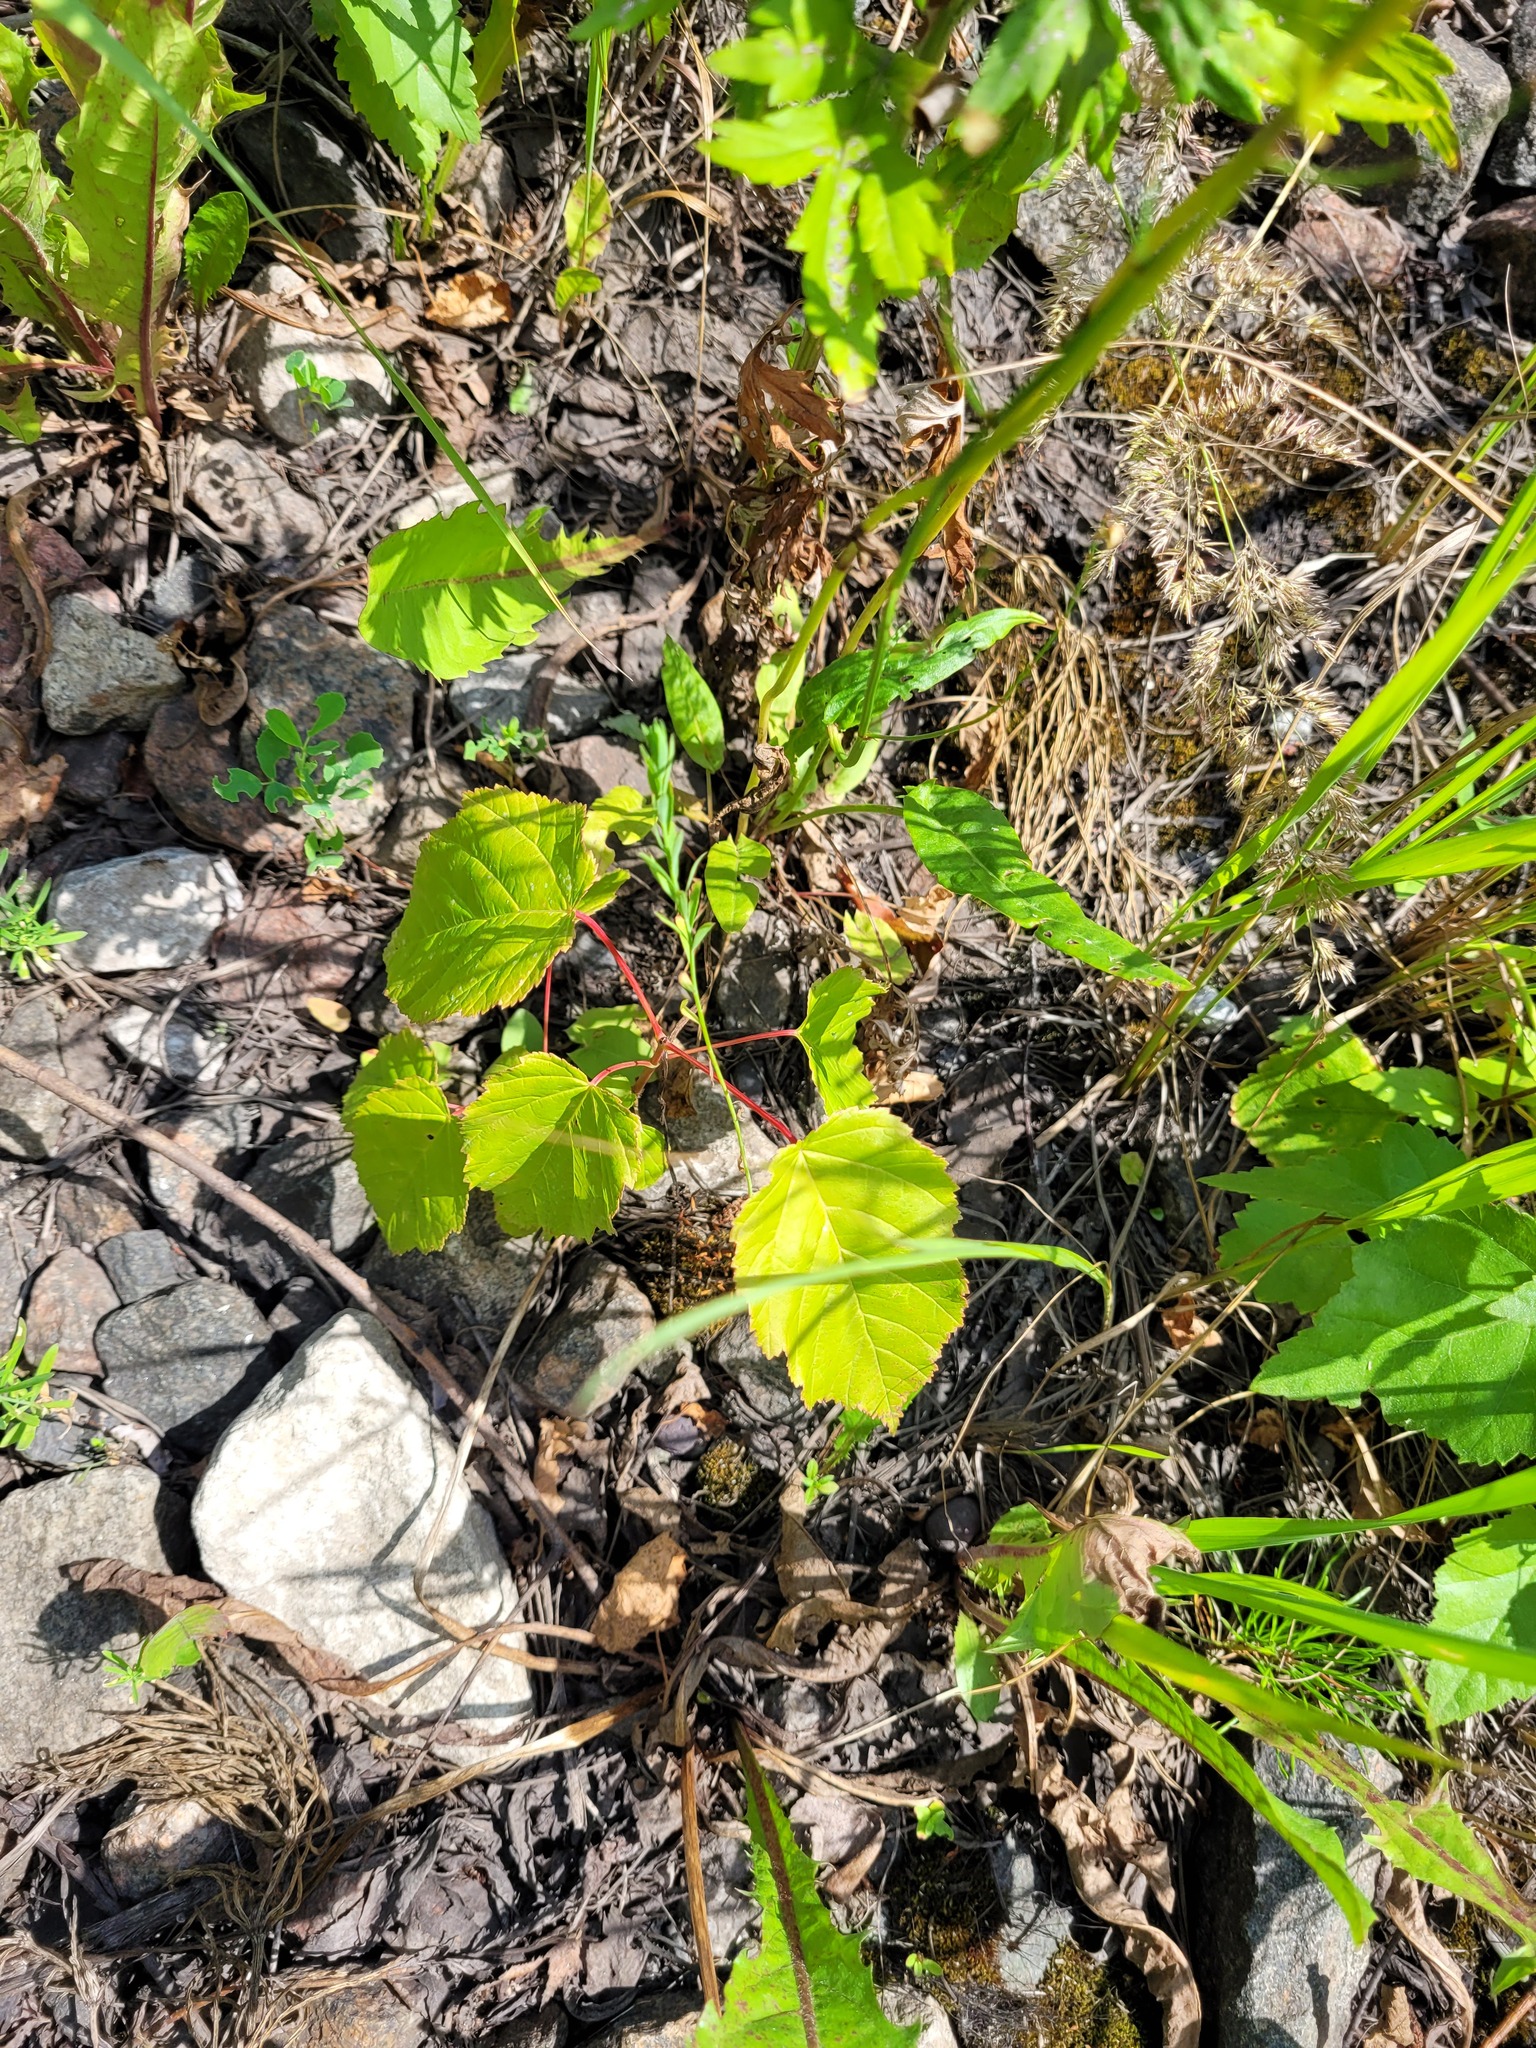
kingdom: Plantae
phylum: Tracheophyta
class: Magnoliopsida
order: Sapindales
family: Sapindaceae
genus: Acer
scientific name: Acer tataricum
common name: Tartar maple
